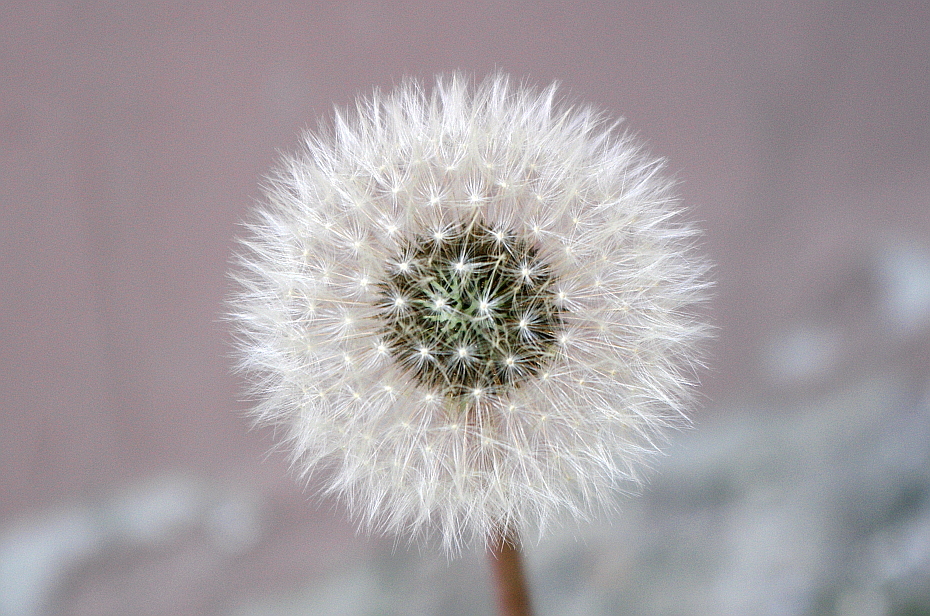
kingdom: Plantae
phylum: Tracheophyta
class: Magnoliopsida
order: Asterales
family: Asteraceae
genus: Taraxacum
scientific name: Taraxacum officinale
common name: Common dandelion
